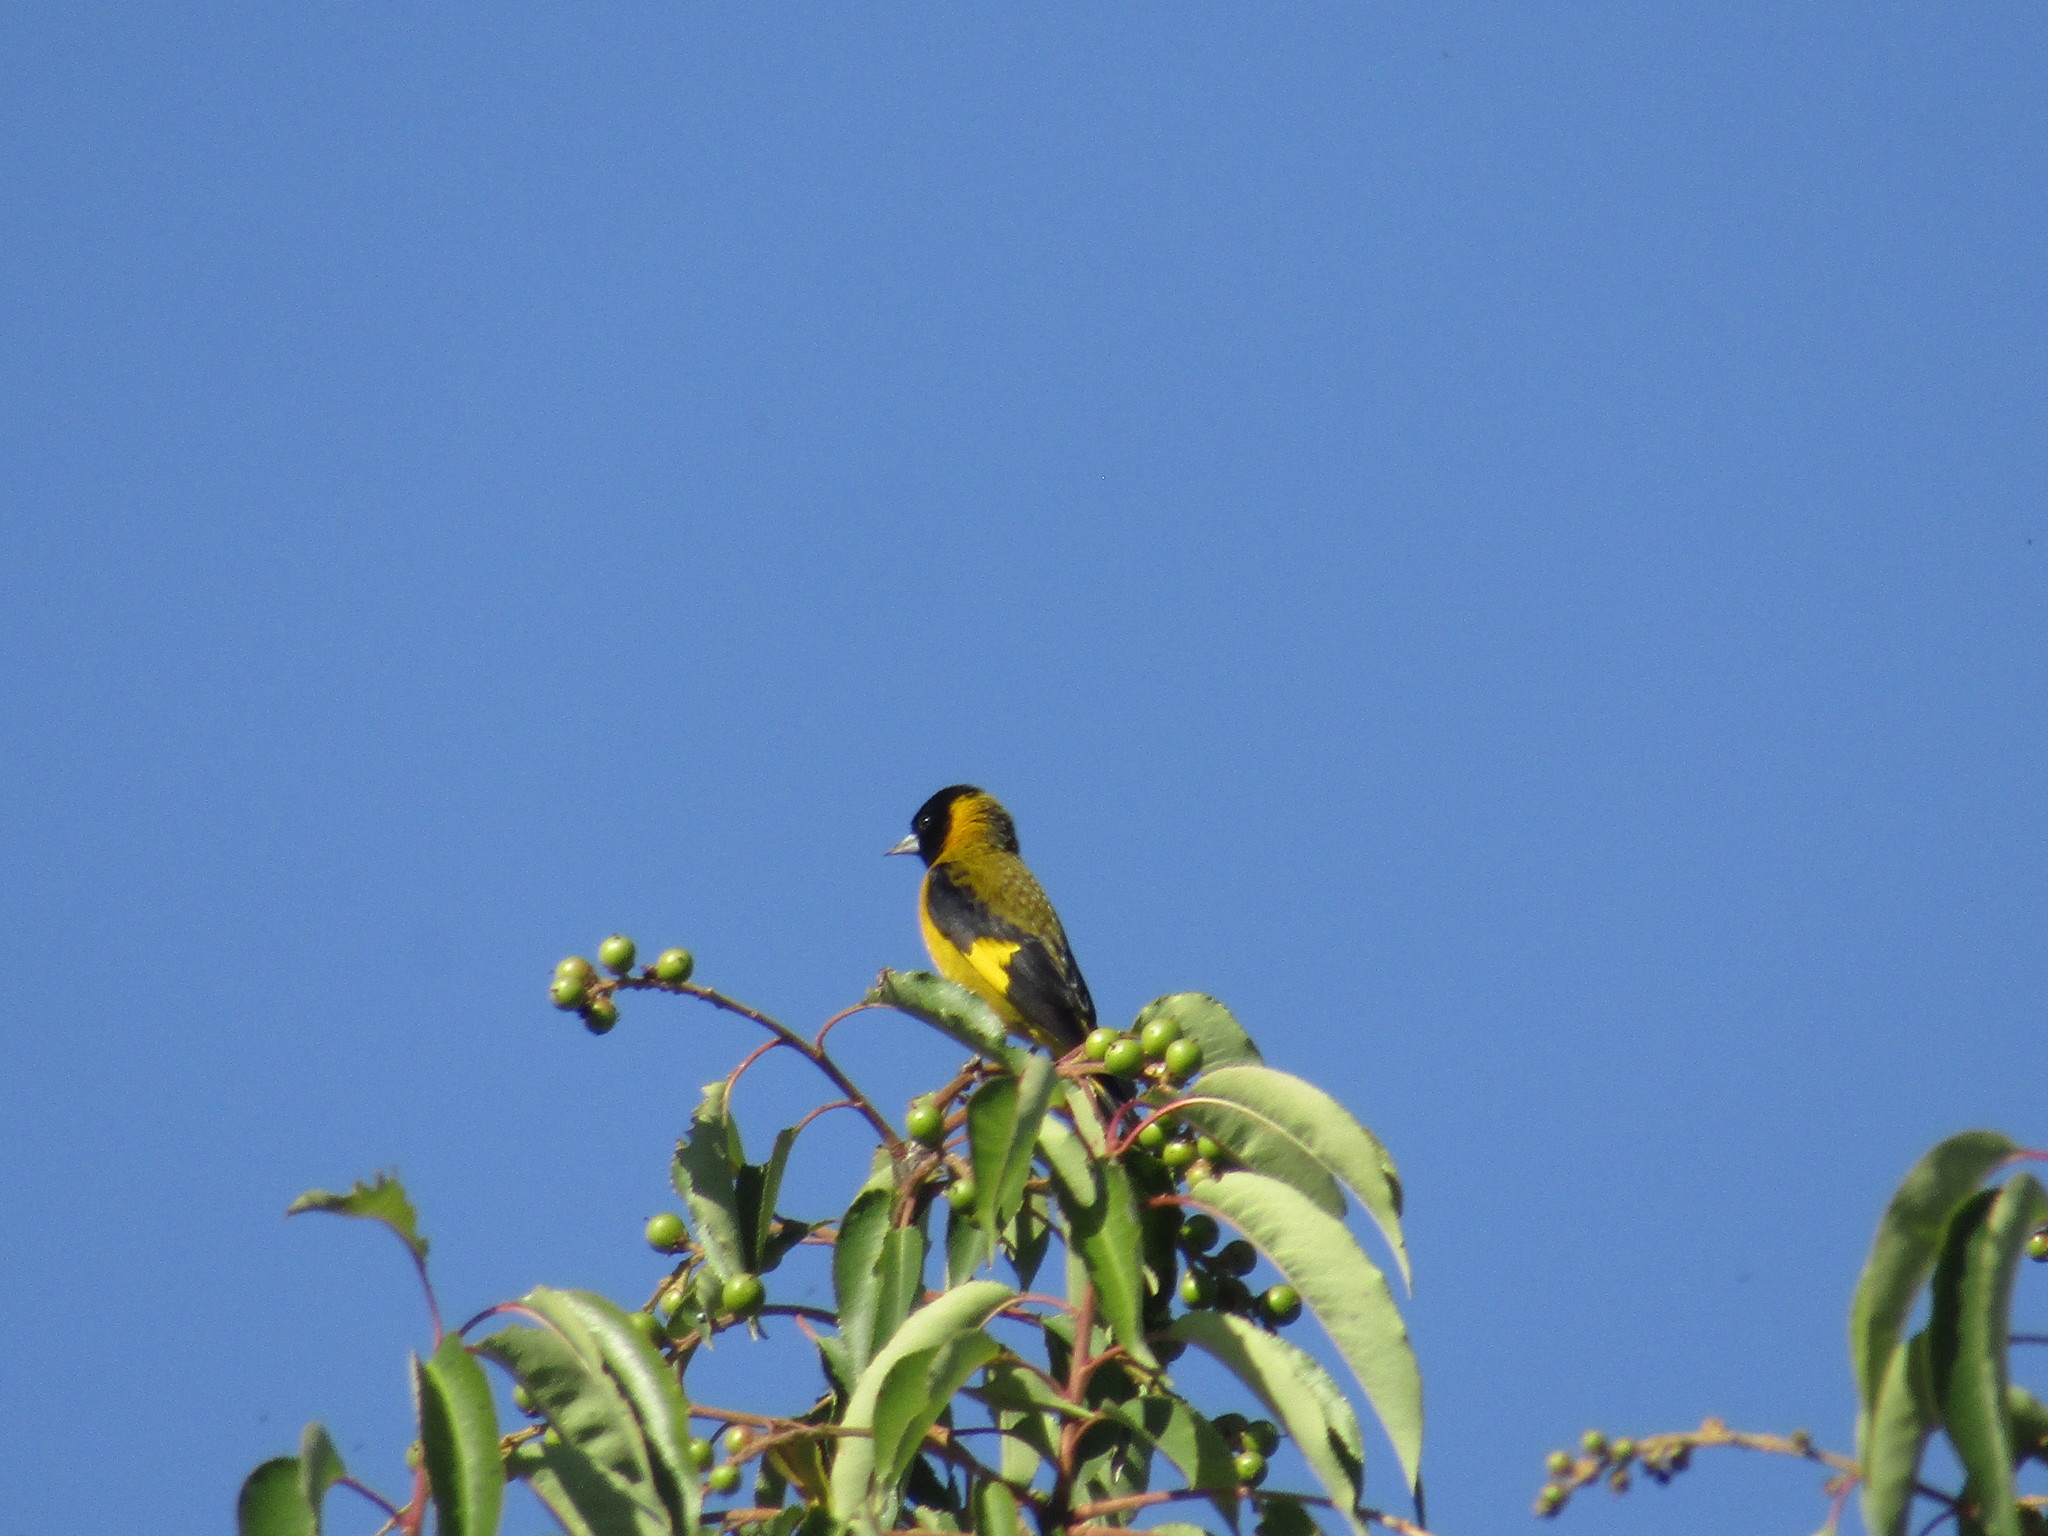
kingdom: Animalia
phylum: Chordata
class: Aves
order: Passeriformes
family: Fringillidae
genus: Spinus
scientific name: Spinus notatus
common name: Black-headed siskin
